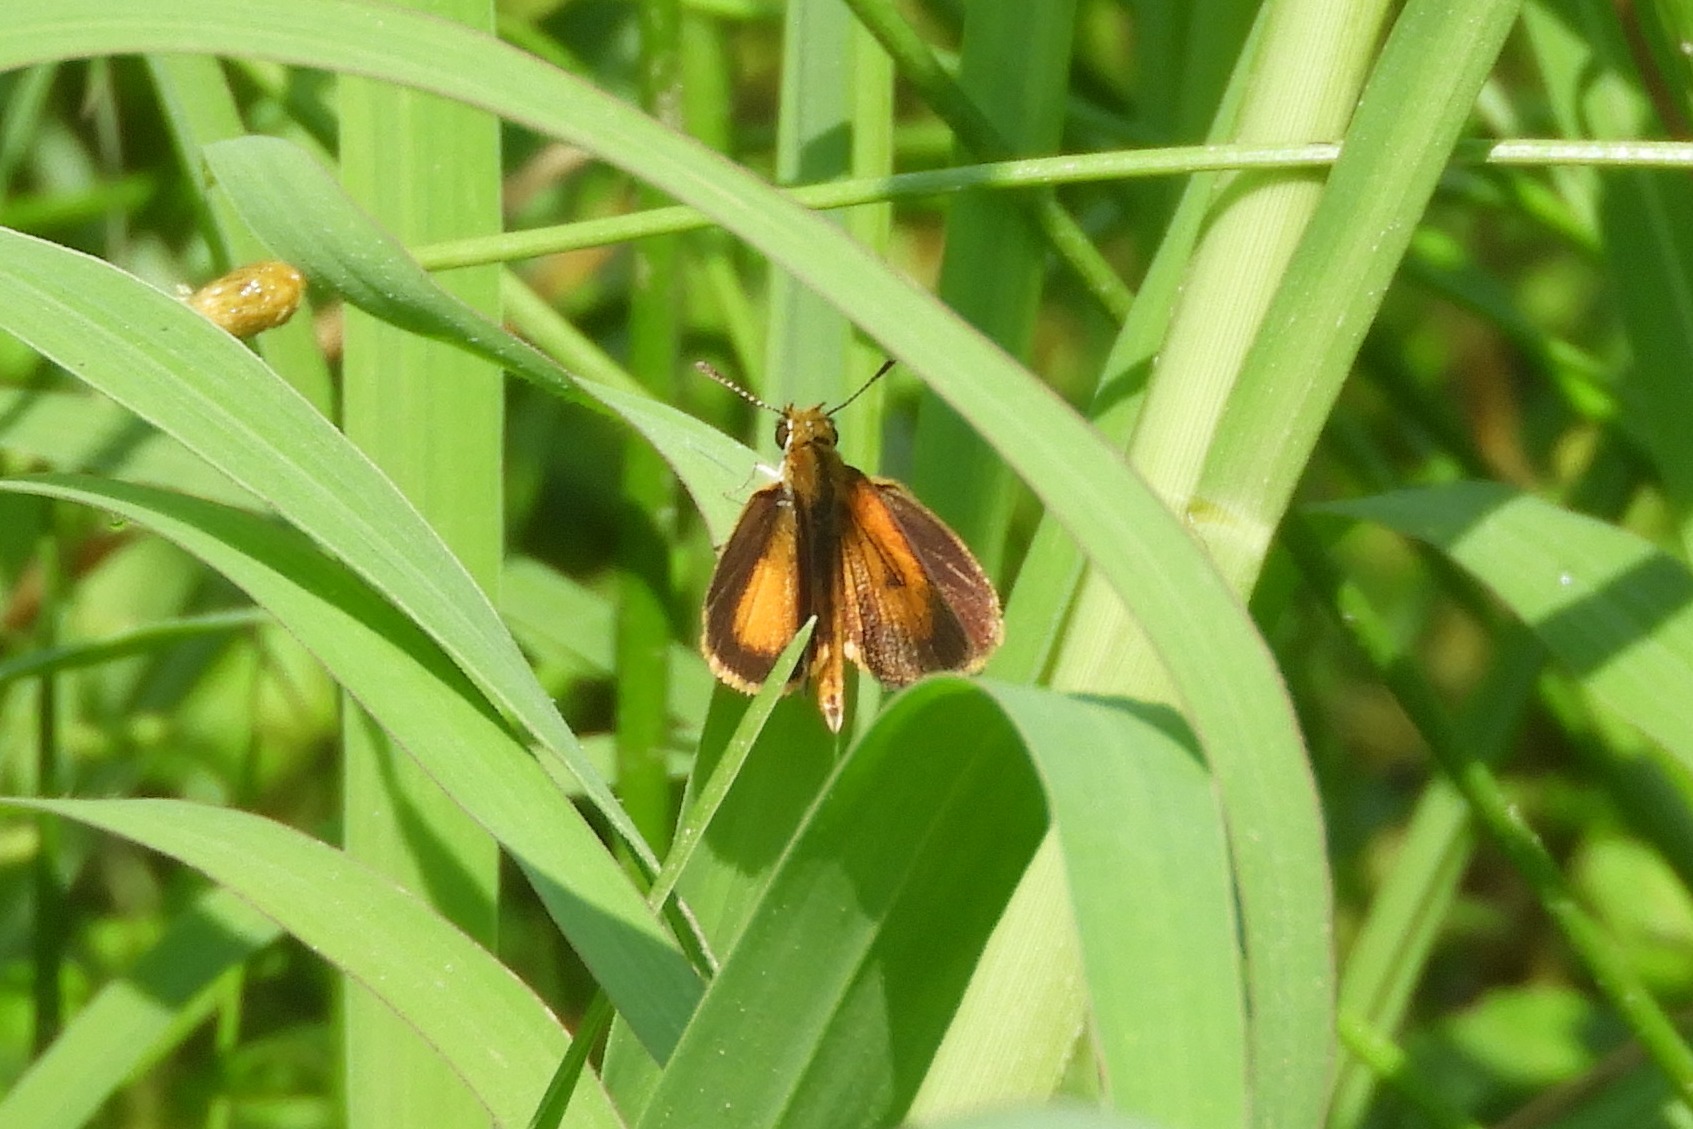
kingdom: Animalia
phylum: Arthropoda
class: Insecta
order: Lepidoptera
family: Hesperiidae
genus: Ancyloxypha
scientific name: Ancyloxypha numitor
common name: Least skipper
